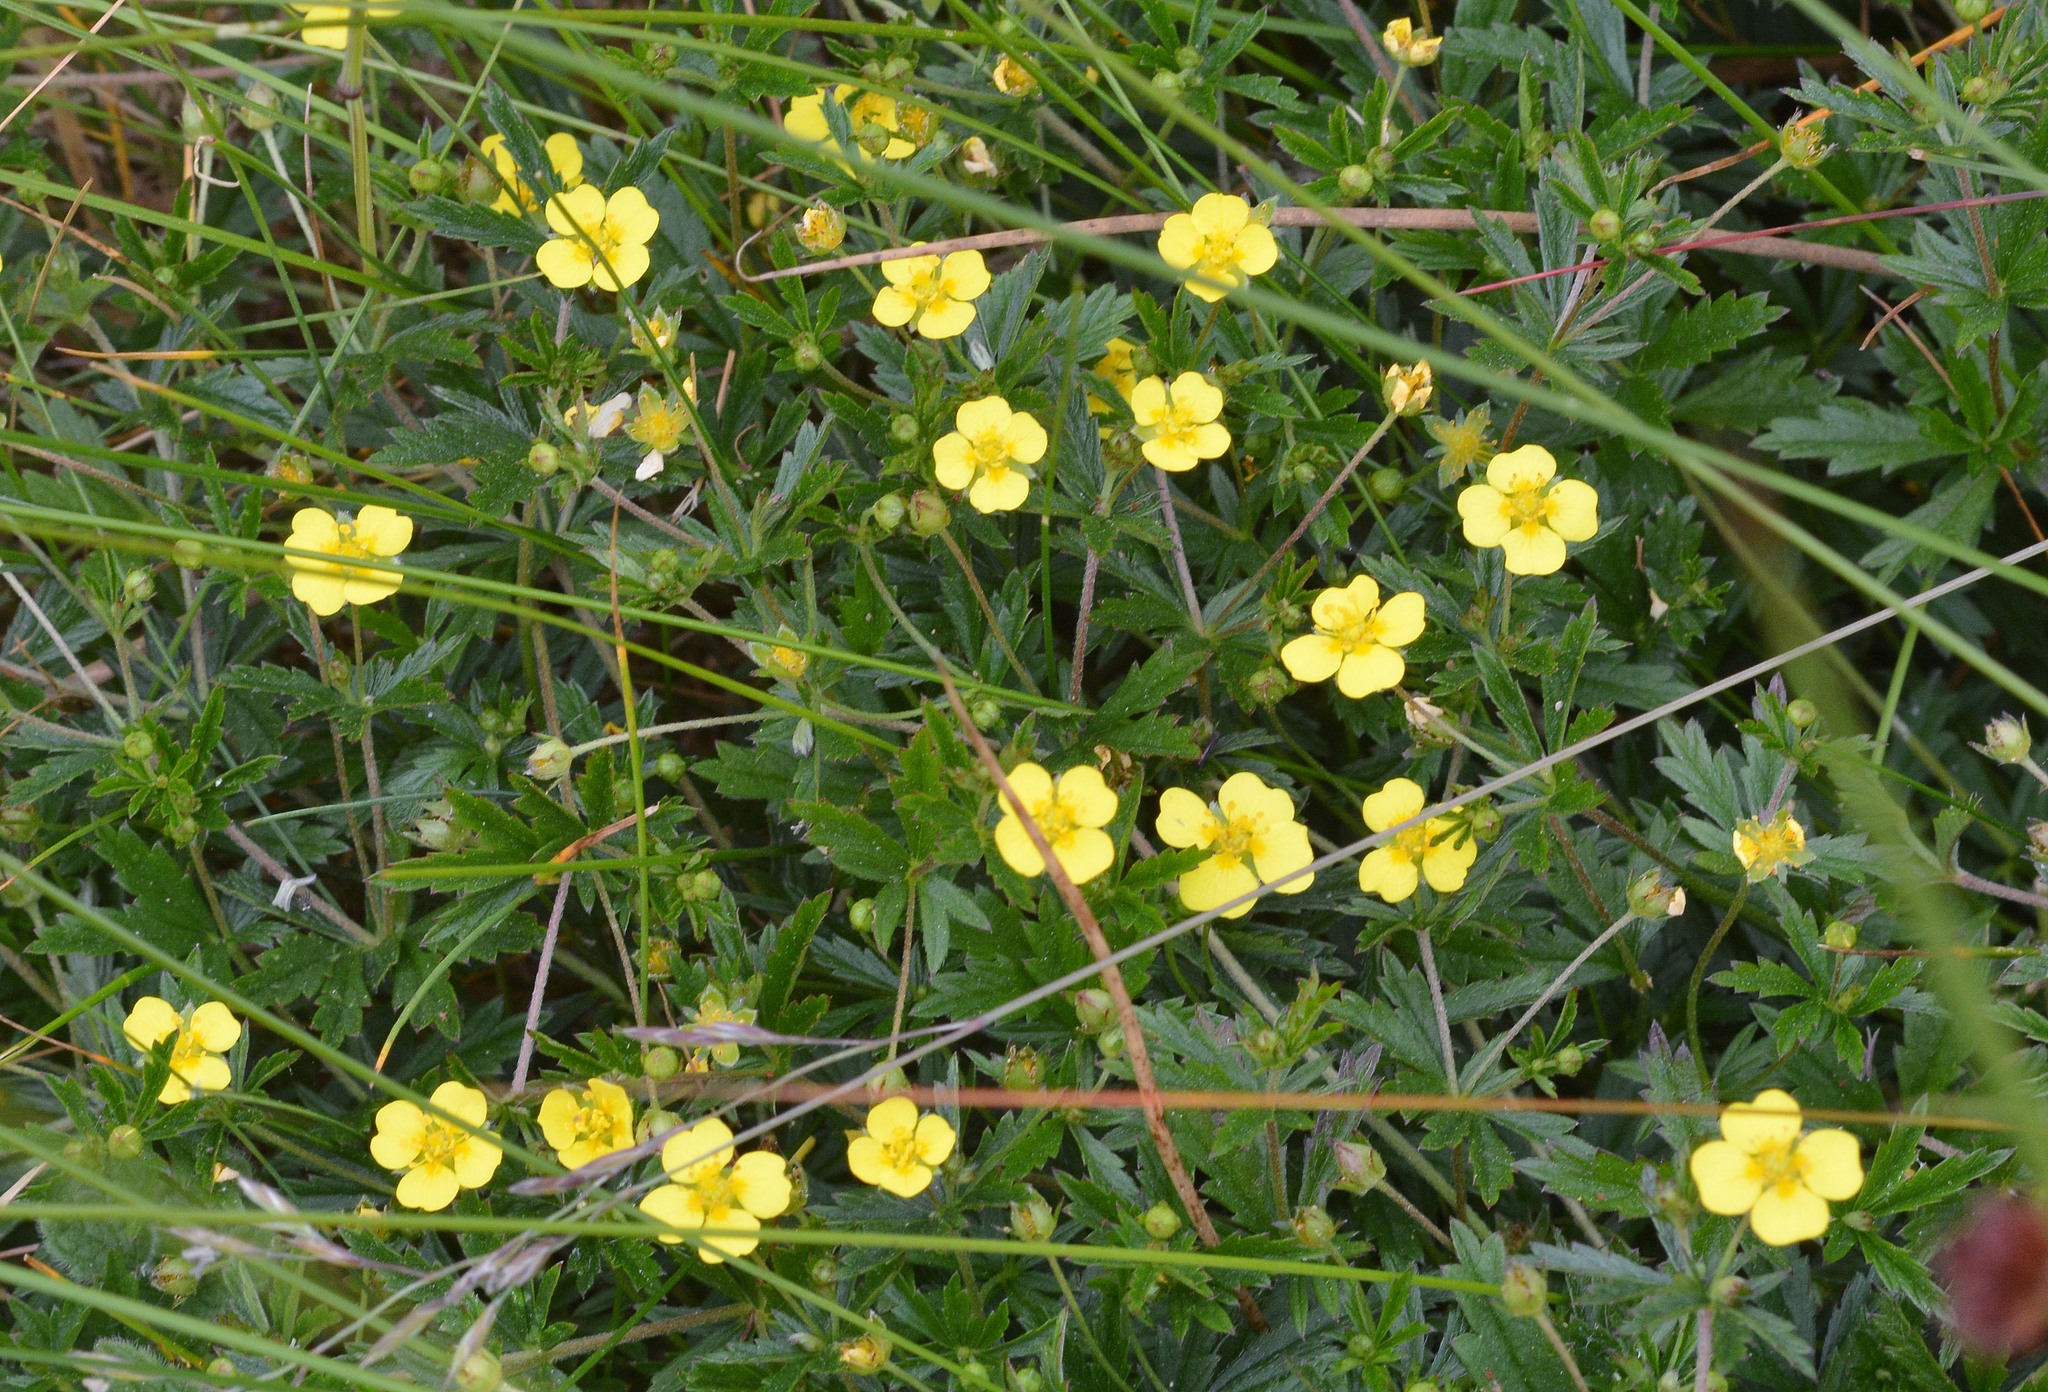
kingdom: Plantae
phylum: Tracheophyta
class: Magnoliopsida
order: Rosales
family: Rosaceae
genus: Potentilla
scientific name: Potentilla erecta
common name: Tormentil
